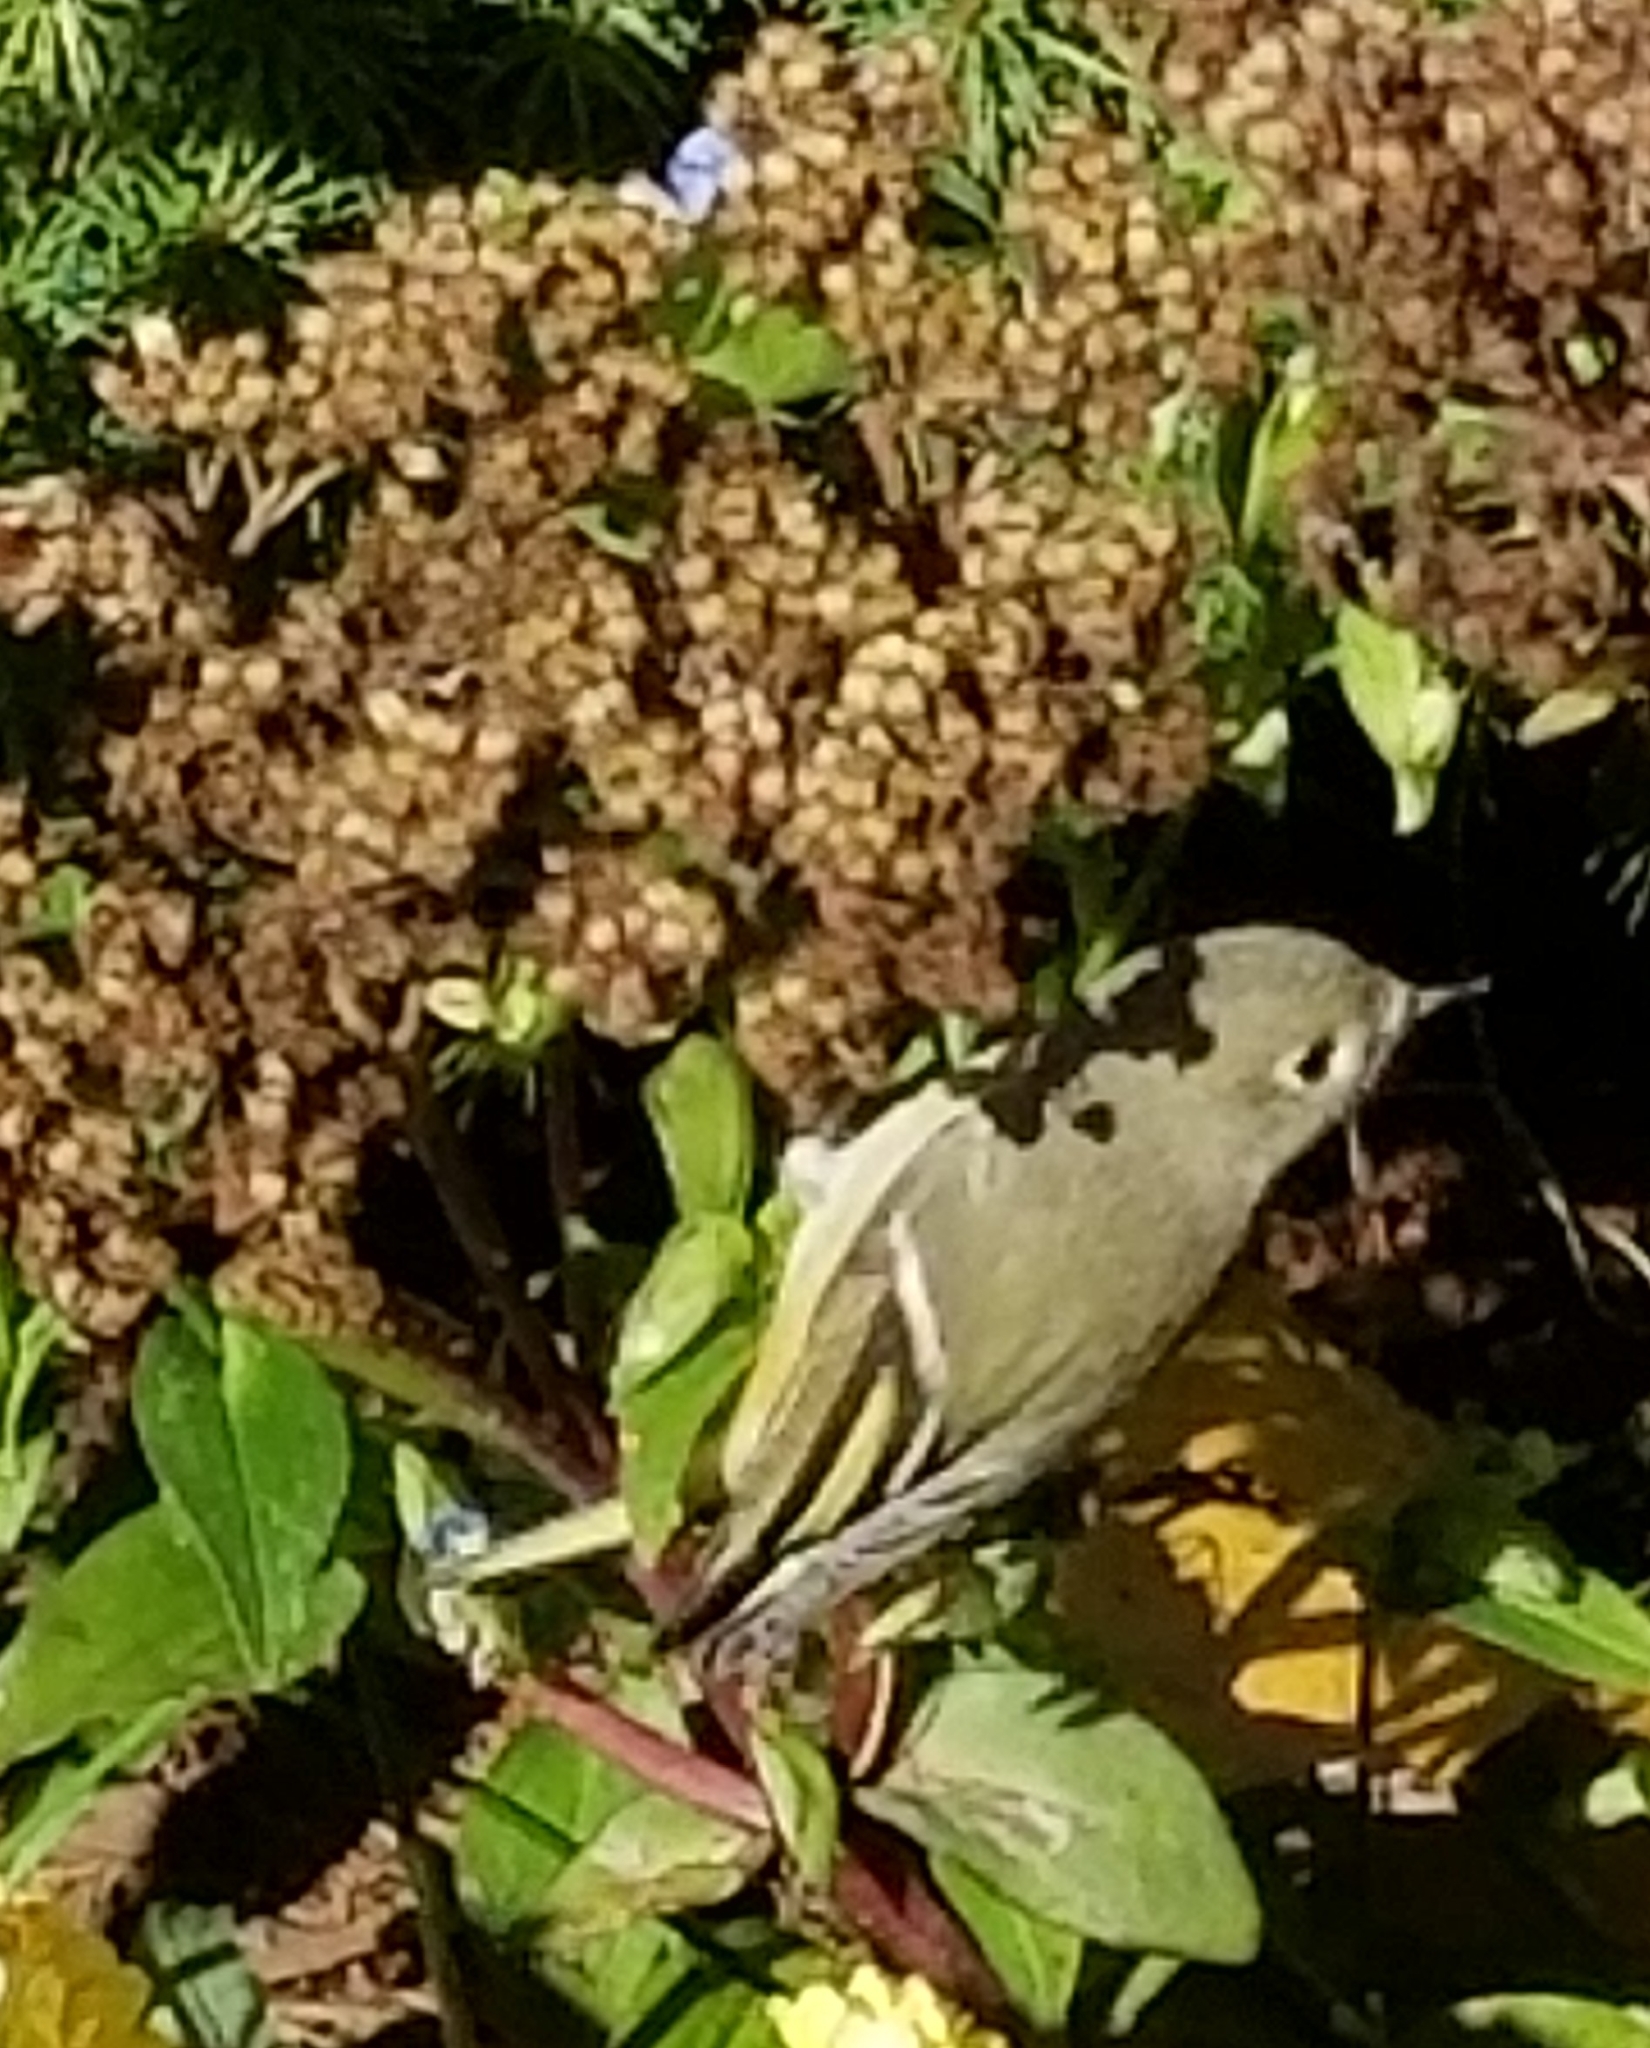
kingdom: Animalia
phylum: Chordata
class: Aves
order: Passeriformes
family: Regulidae
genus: Regulus
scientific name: Regulus calendula
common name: Ruby-crowned kinglet
